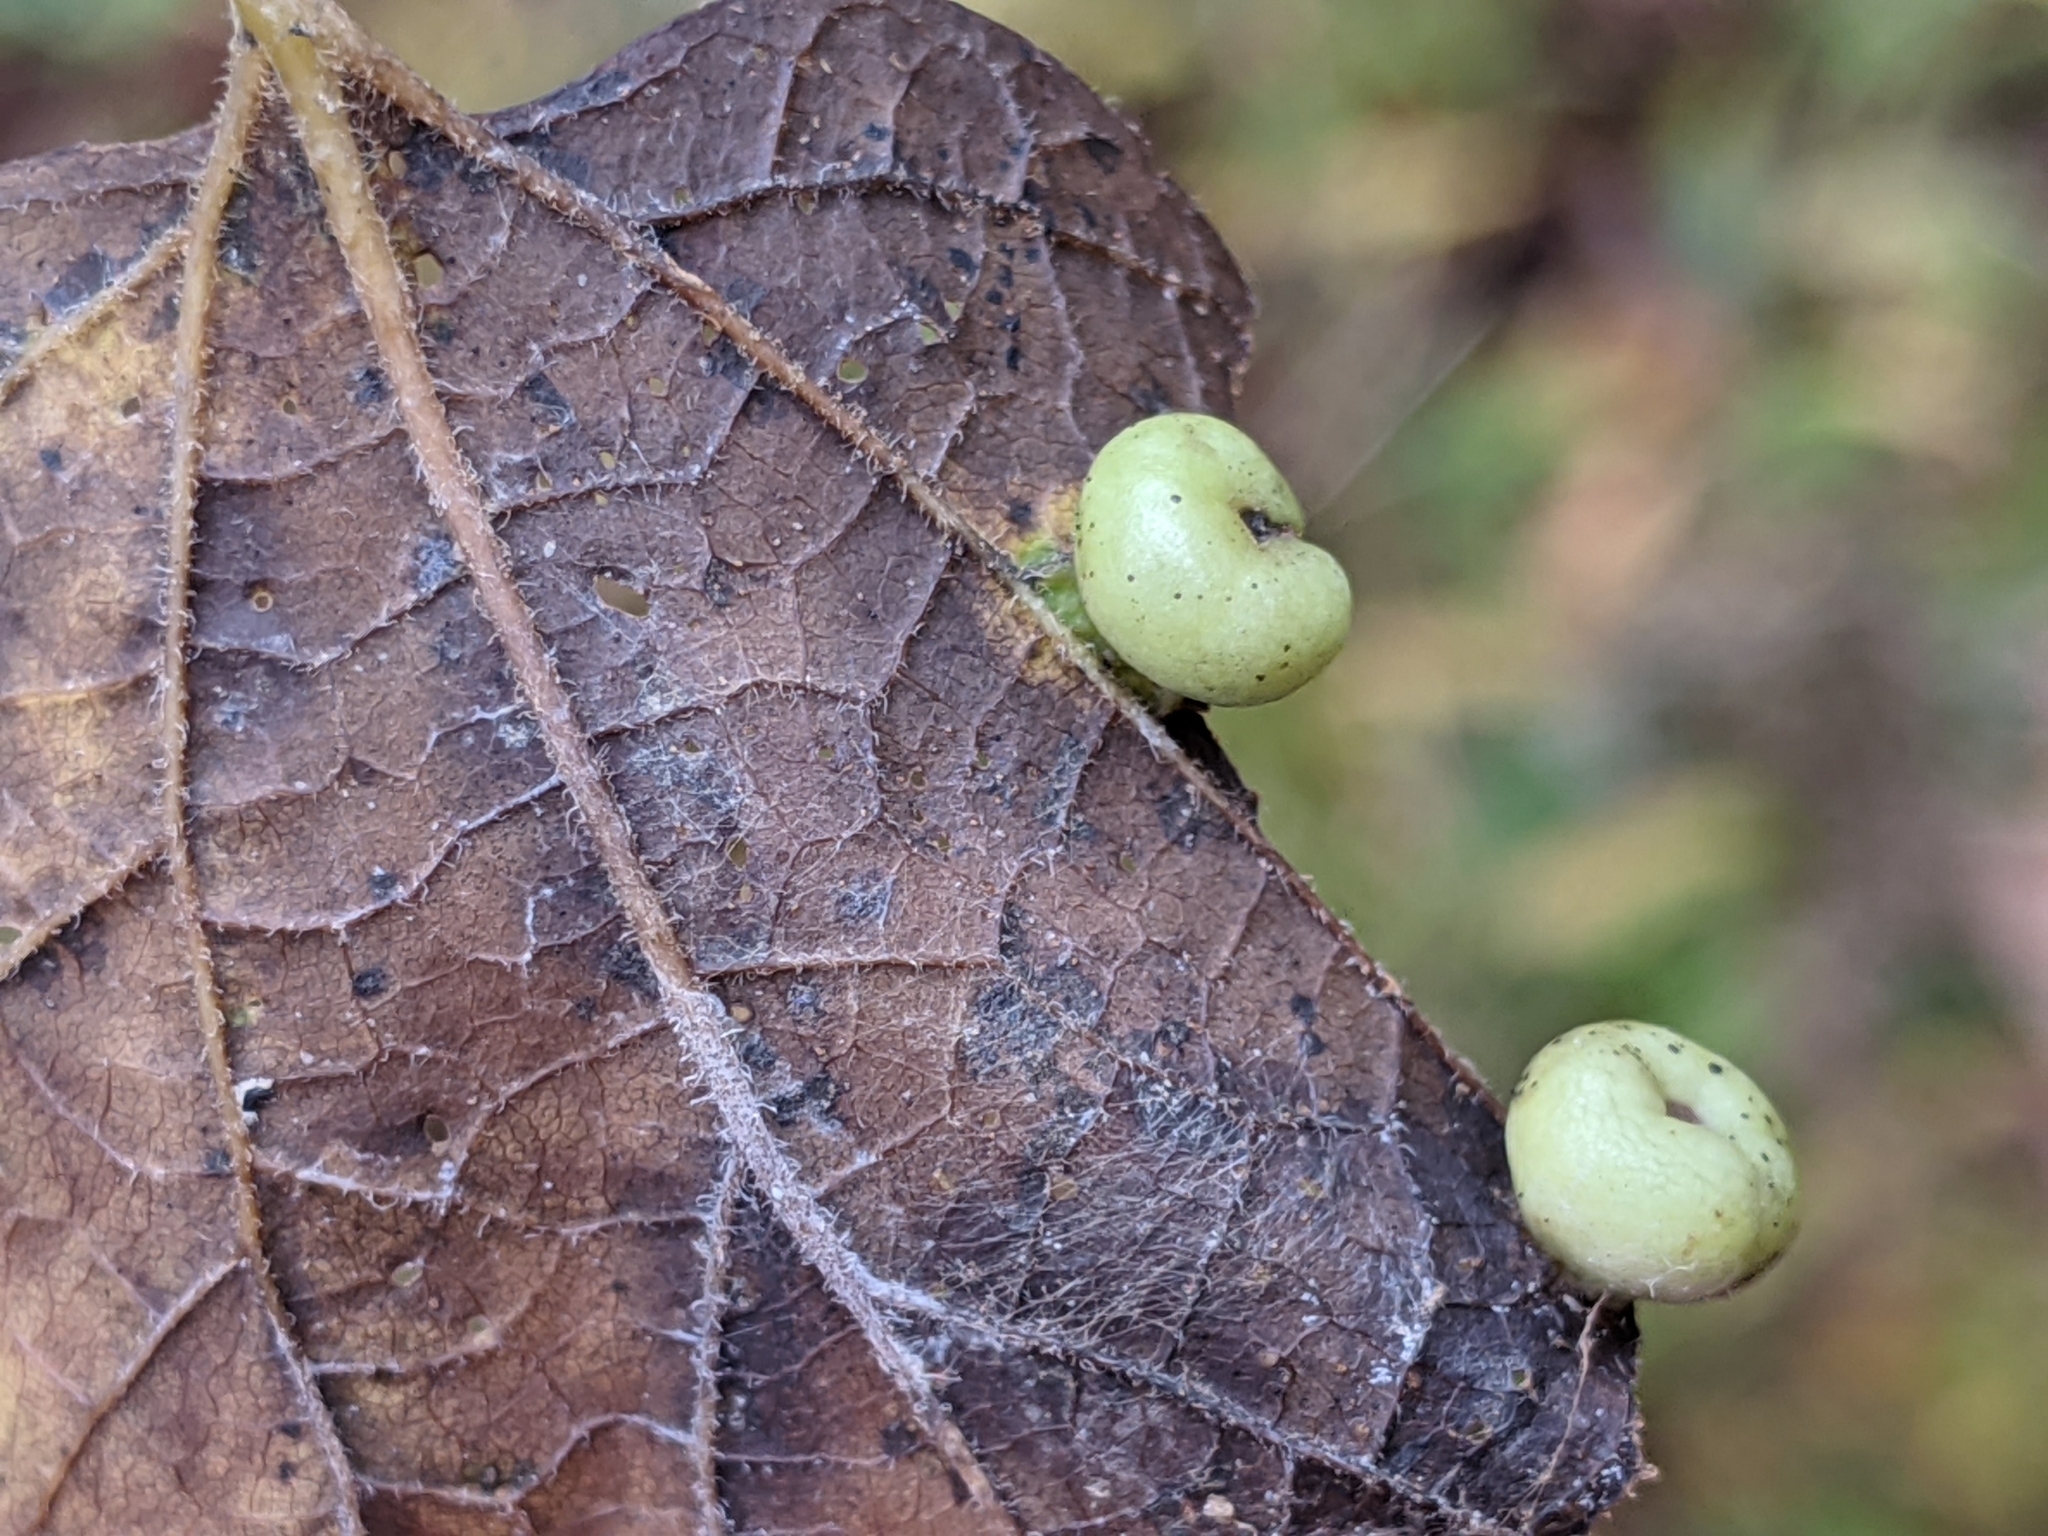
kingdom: Animalia
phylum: Arthropoda
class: Insecta
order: Hemiptera
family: Aphalaridae
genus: Pachypsylla
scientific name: Pachypsylla celtidismamma
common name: Hackberry nipplegall psyllid
